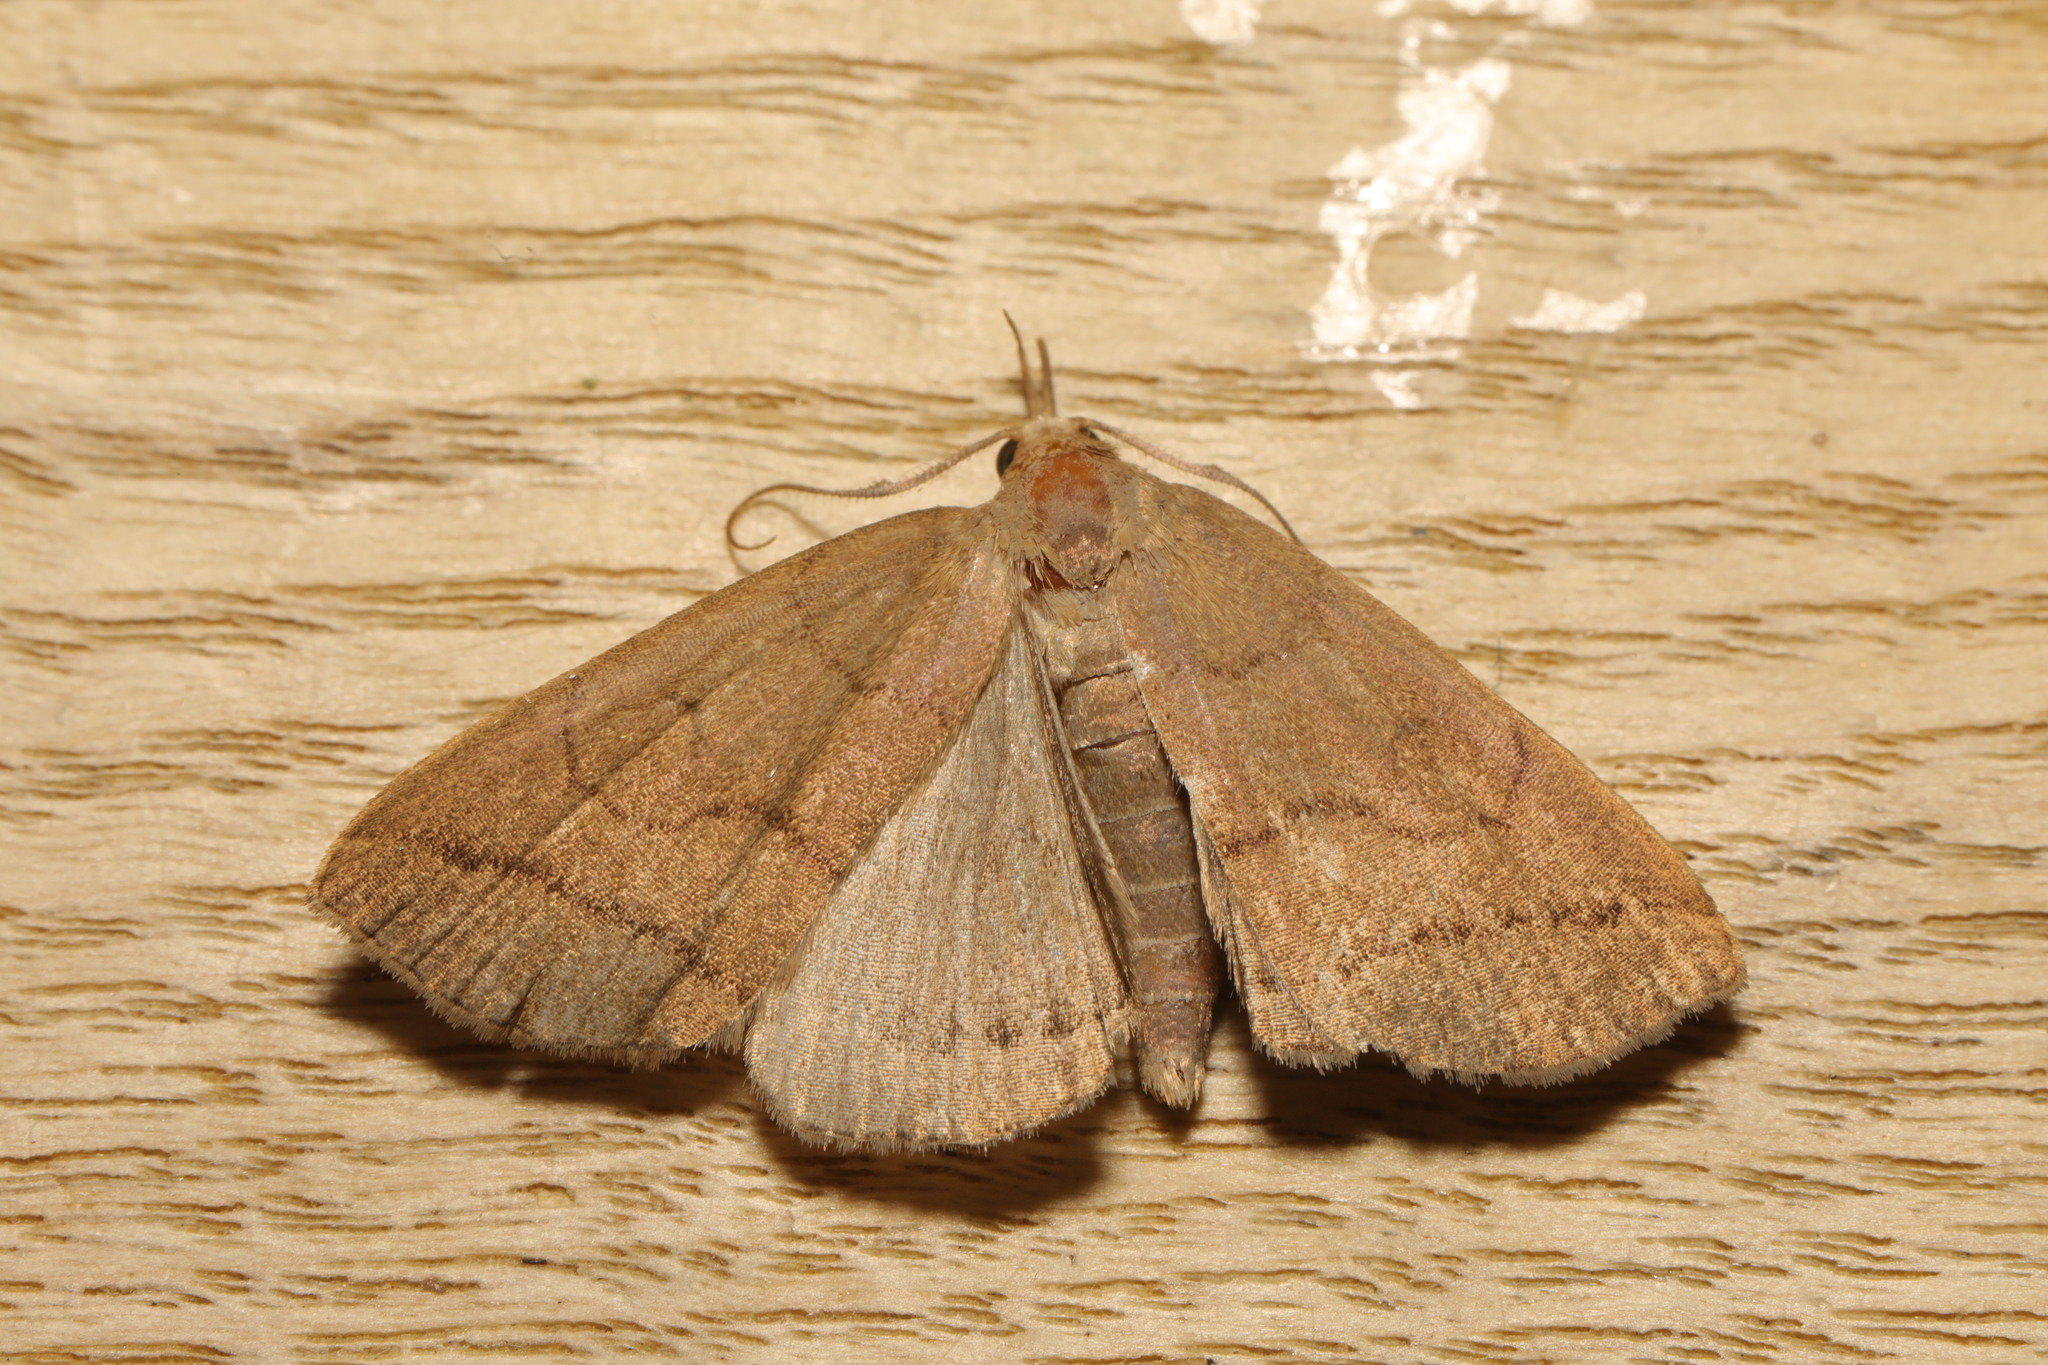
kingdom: Animalia
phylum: Arthropoda
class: Insecta
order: Lepidoptera
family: Erebidae
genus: Herminia
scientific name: Herminia tarsipennalis
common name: Fan-foot
